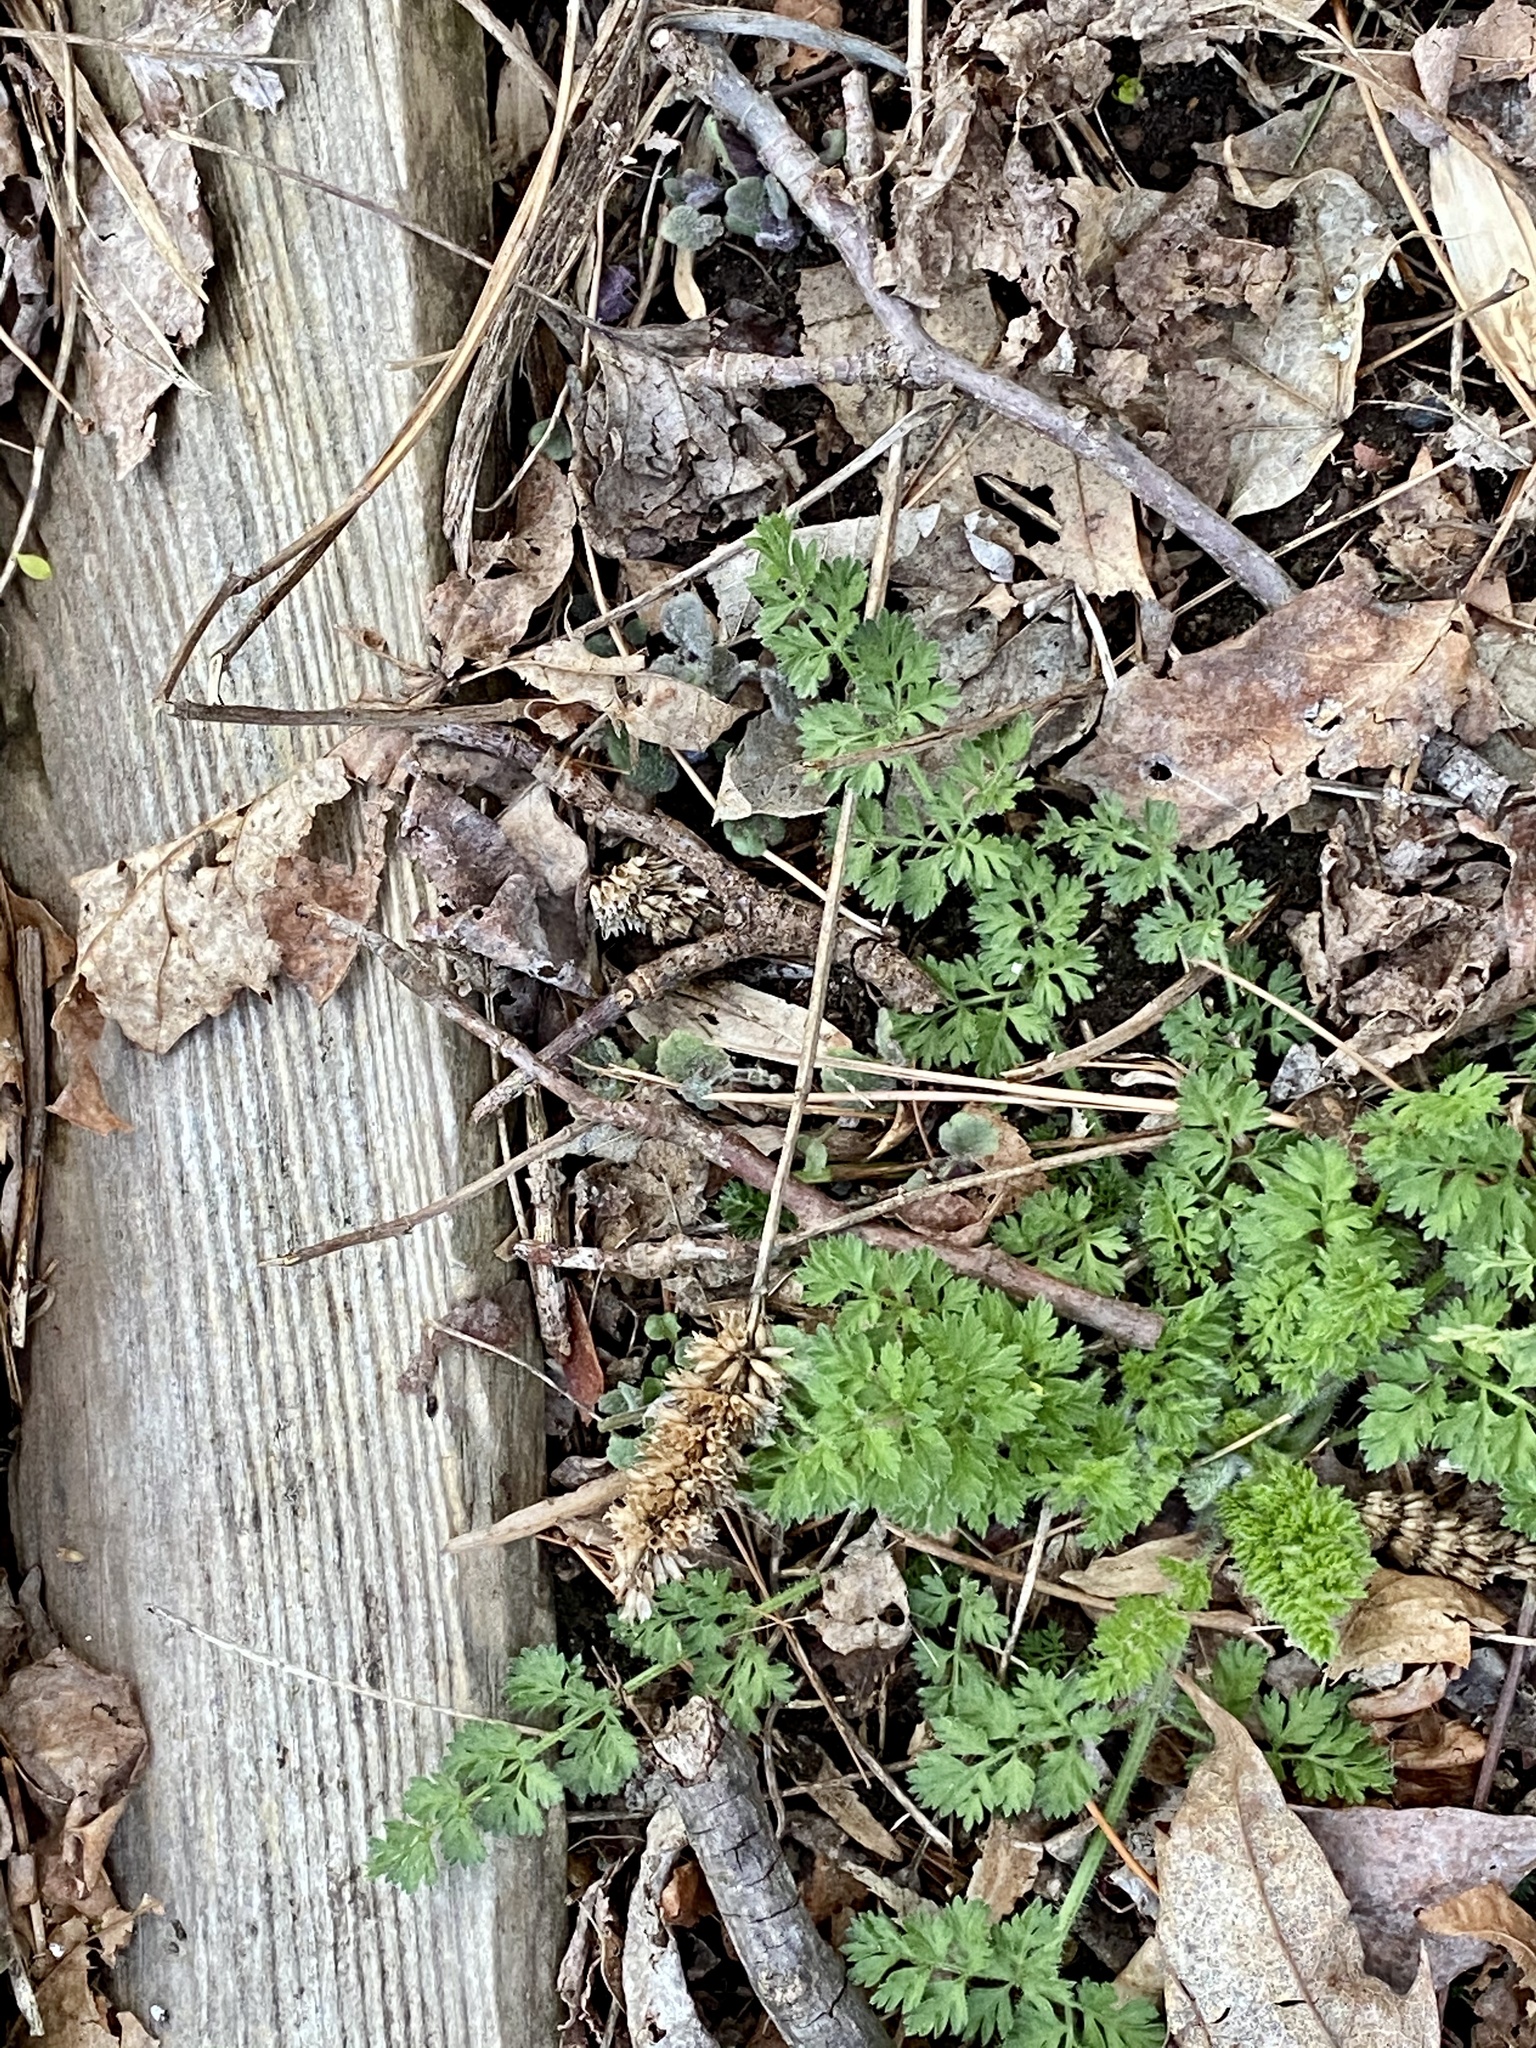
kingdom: Plantae
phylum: Tracheophyta
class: Magnoliopsida
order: Apiales
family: Apiaceae
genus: Daucus
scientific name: Daucus carota
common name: Wild carrot
